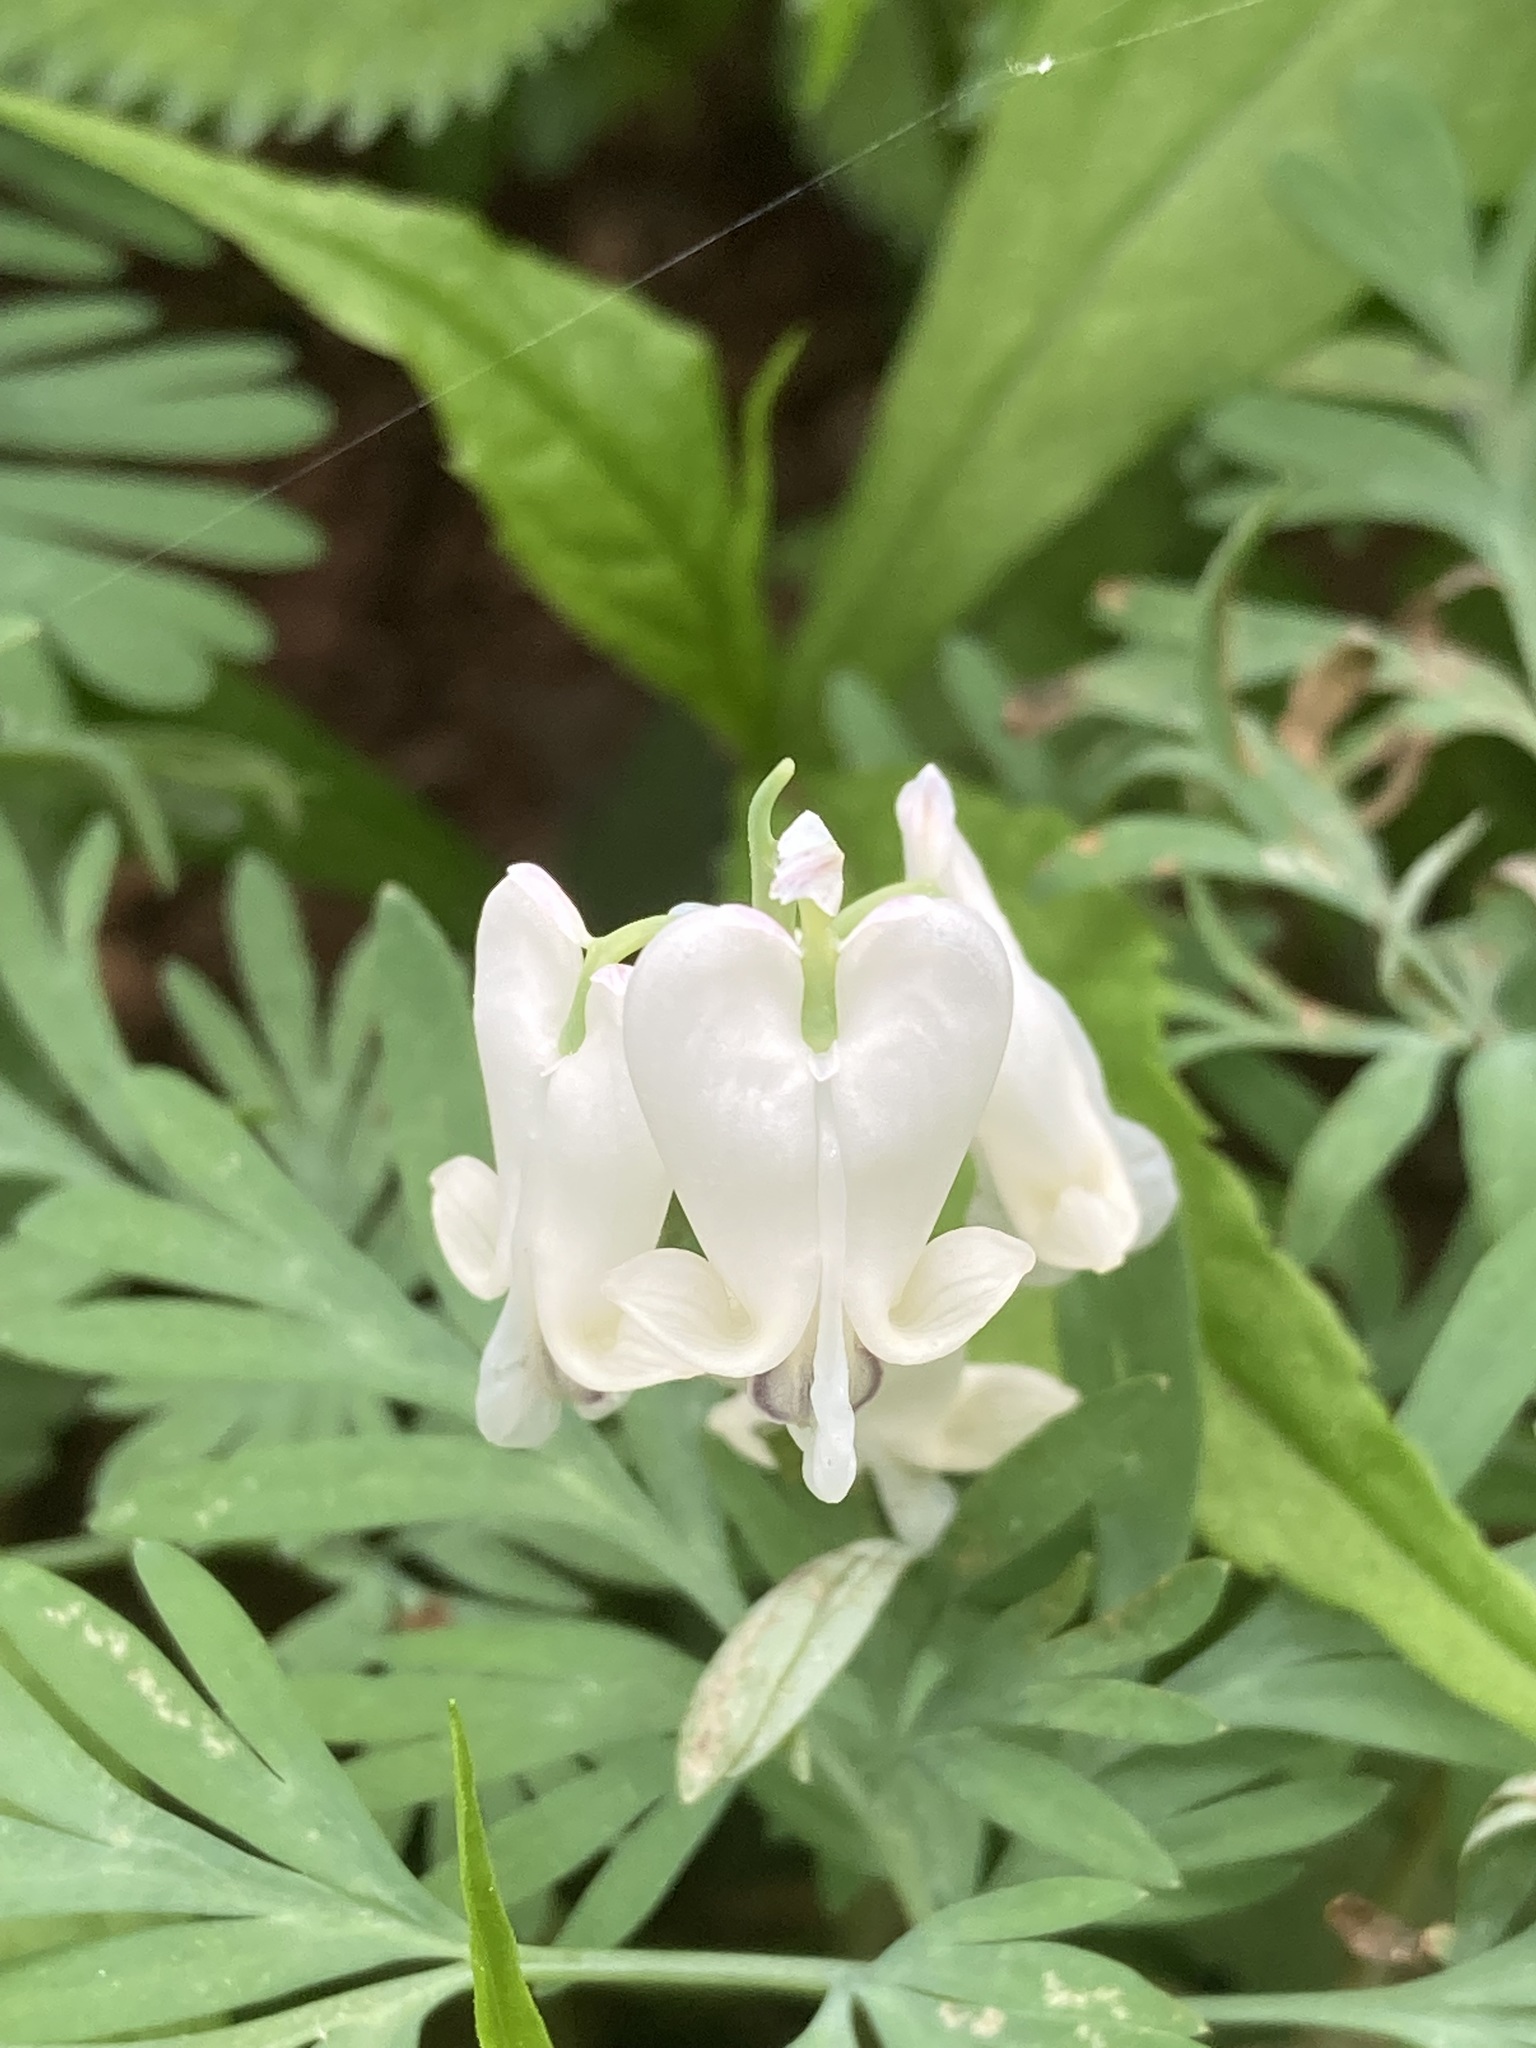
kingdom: Plantae
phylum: Tracheophyta
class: Magnoliopsida
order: Ranunculales
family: Papaveraceae
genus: Dicentra
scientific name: Dicentra canadensis
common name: Squirrel-corn
